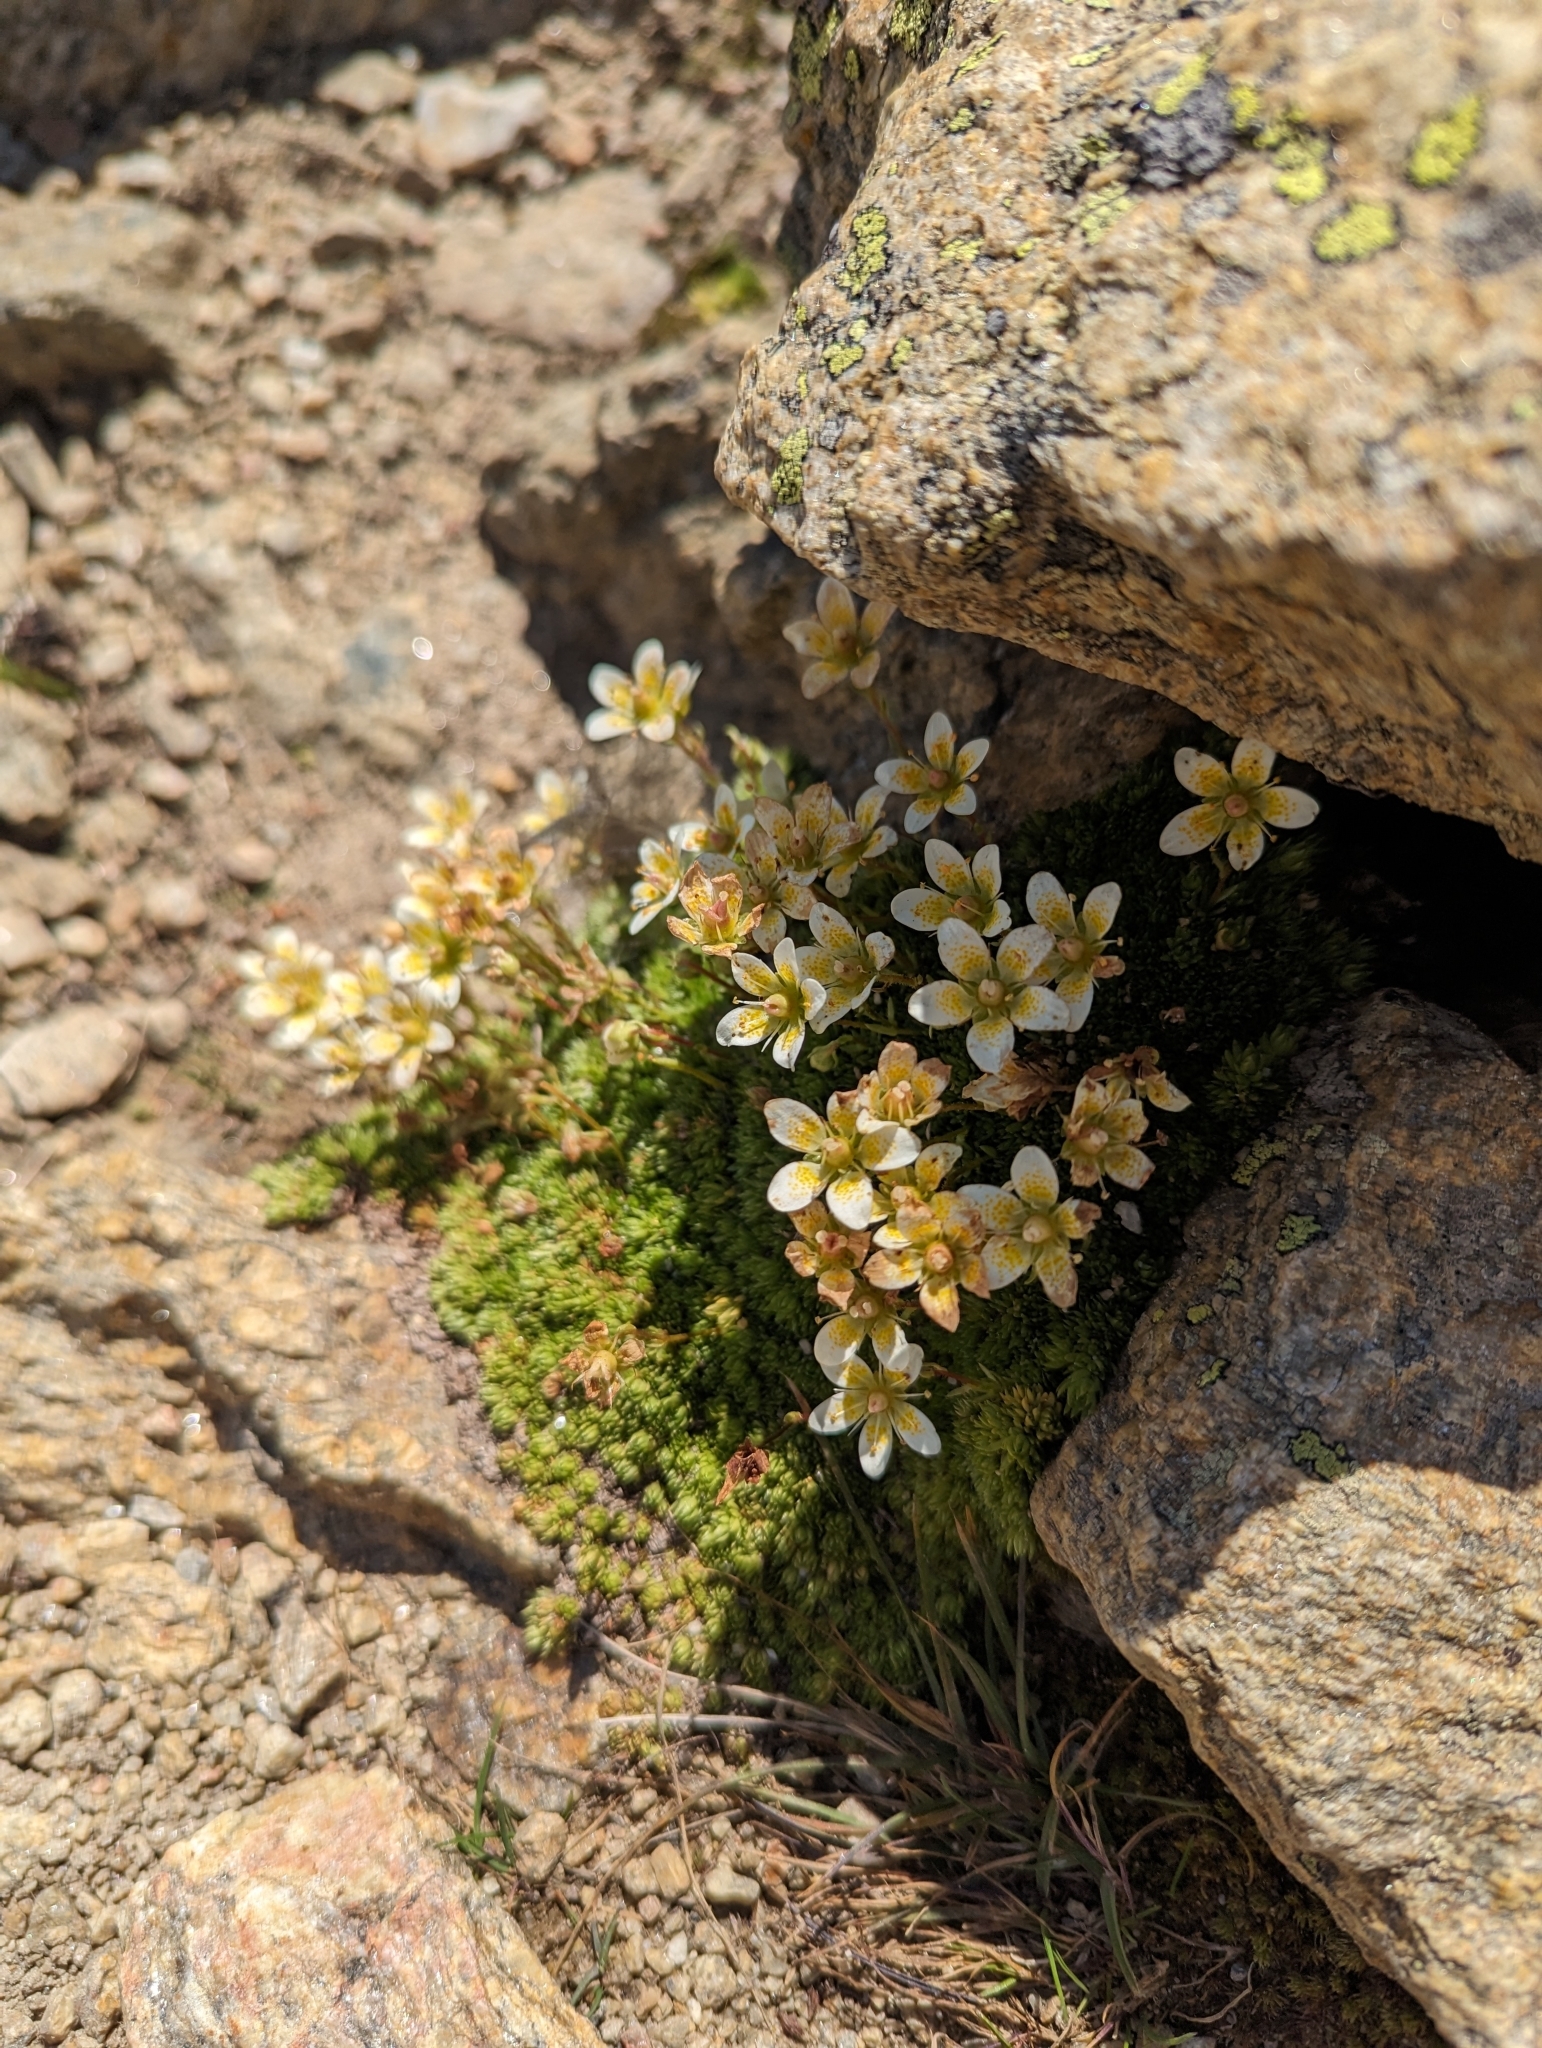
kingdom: Plantae
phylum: Tracheophyta
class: Magnoliopsida
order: Saxifragales
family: Saxifragaceae
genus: Saxifraga
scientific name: Saxifraga bryoides
